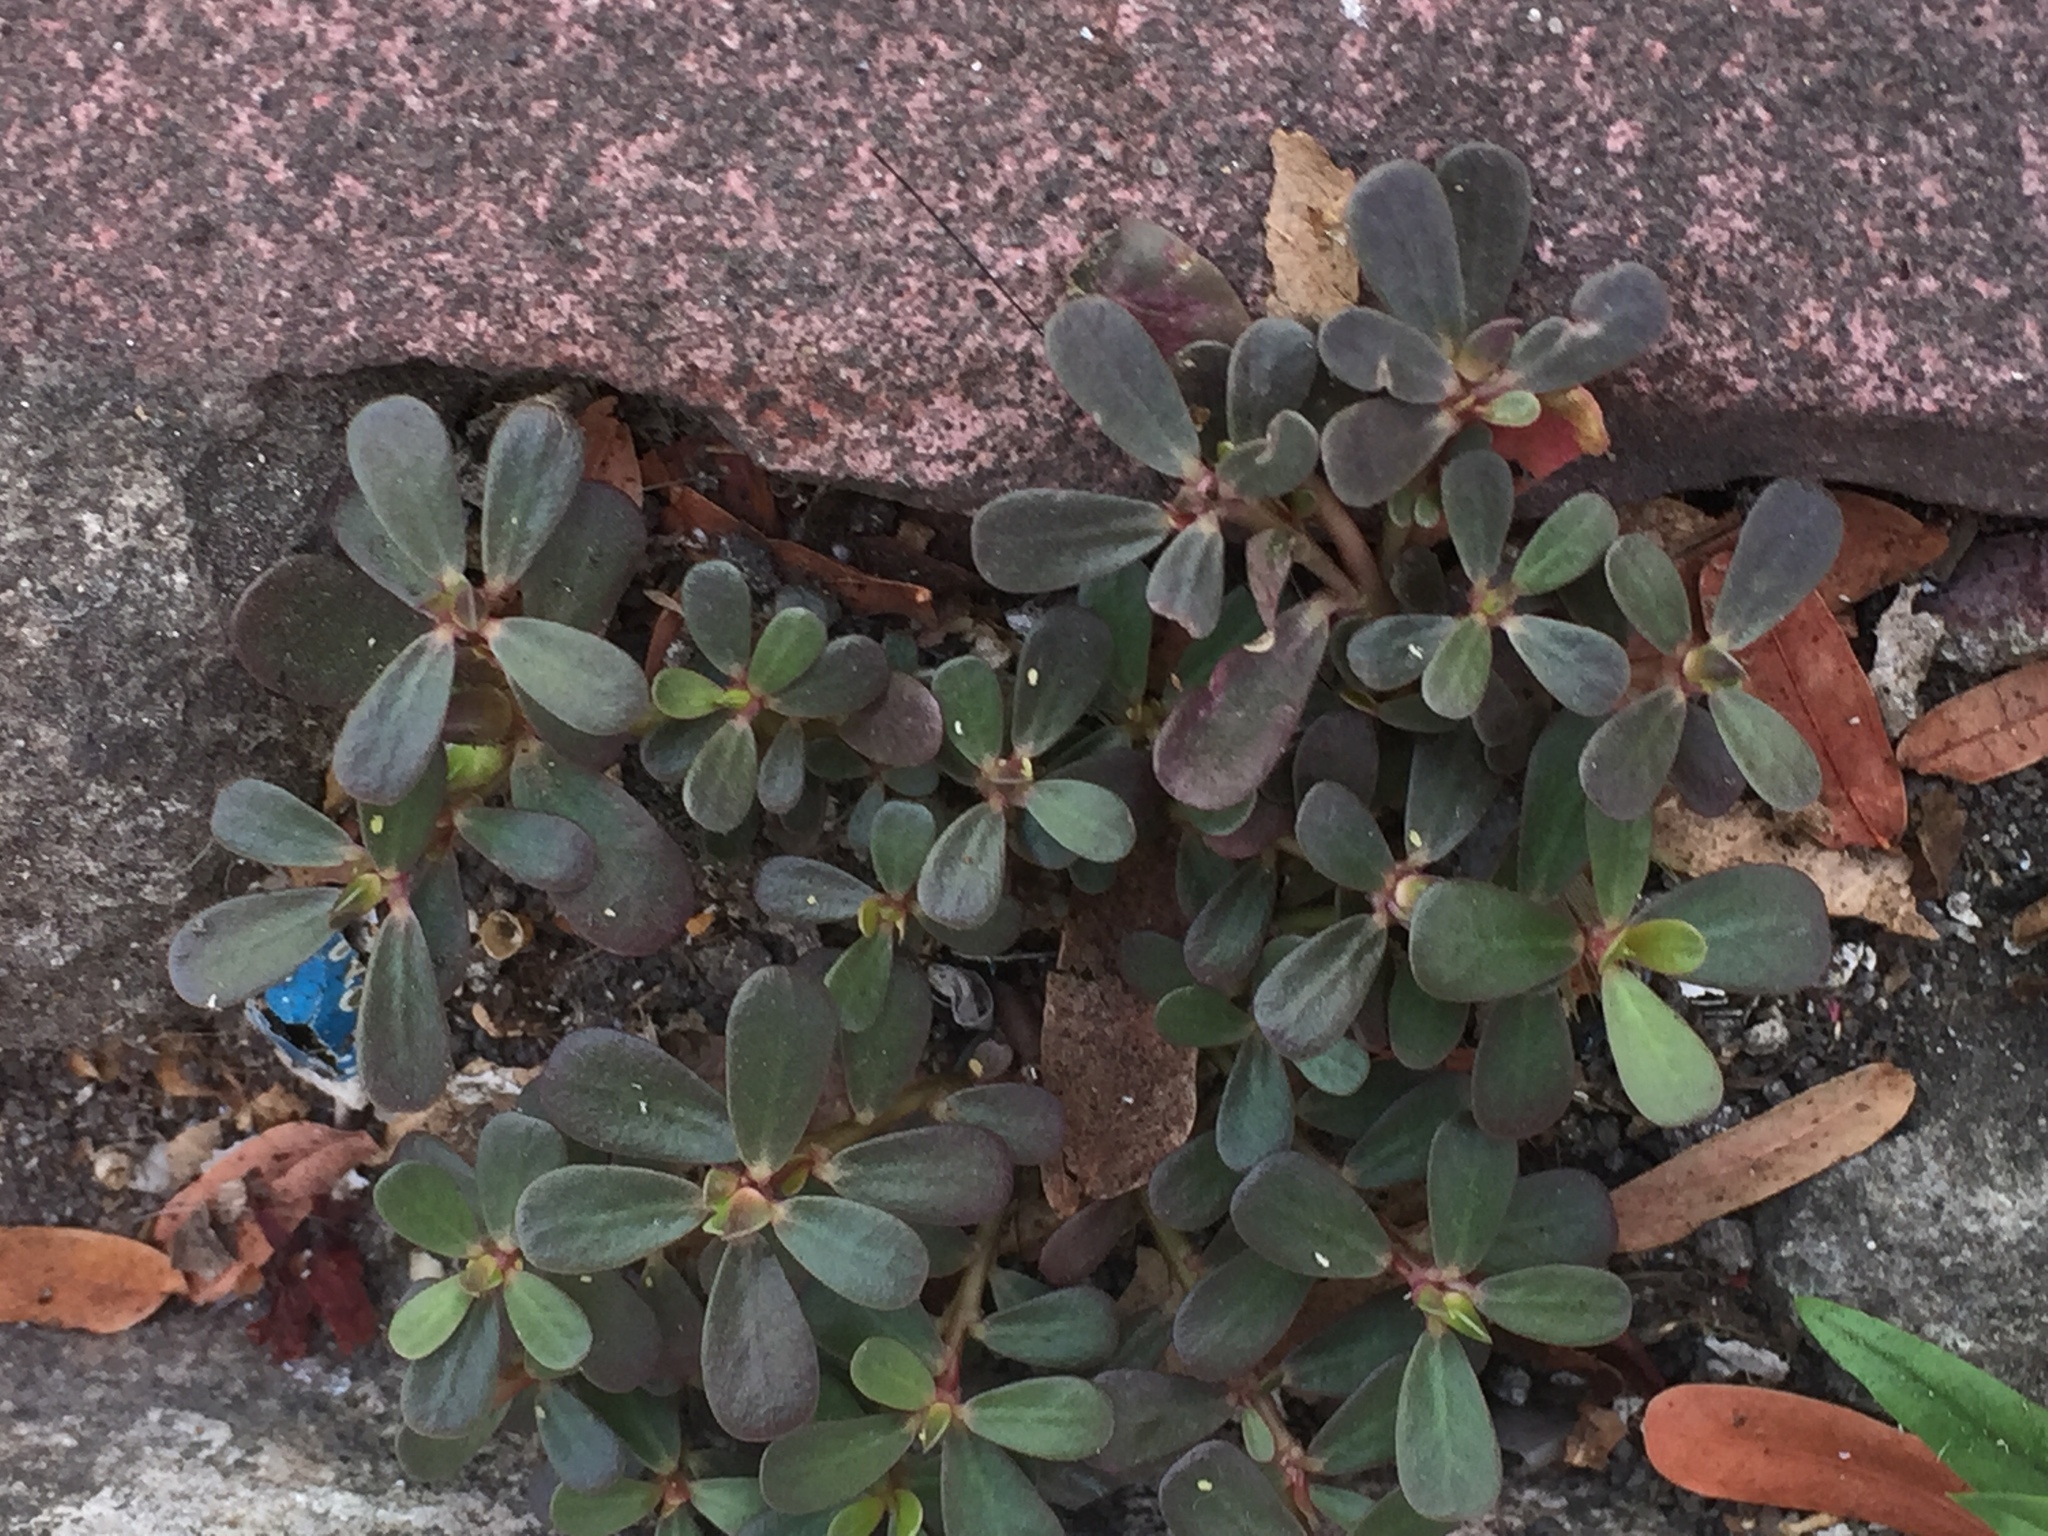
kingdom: Plantae
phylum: Tracheophyta
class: Magnoliopsida
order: Caryophyllales
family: Portulacaceae
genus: Portulaca
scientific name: Portulaca oleracea
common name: Common purslane
